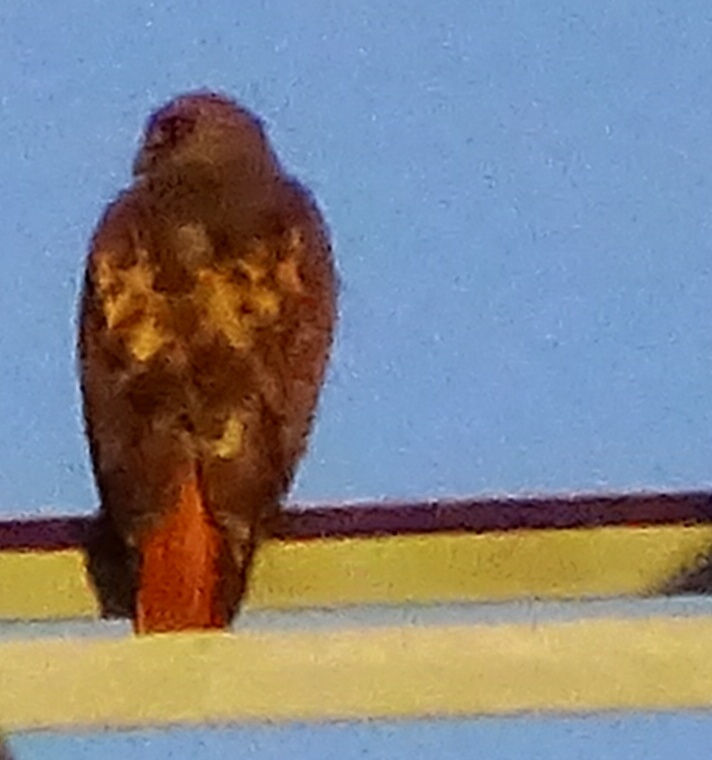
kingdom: Animalia
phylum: Chordata
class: Aves
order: Accipitriformes
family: Accipitridae
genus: Buteo
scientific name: Buteo jamaicensis
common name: Red-tailed hawk
